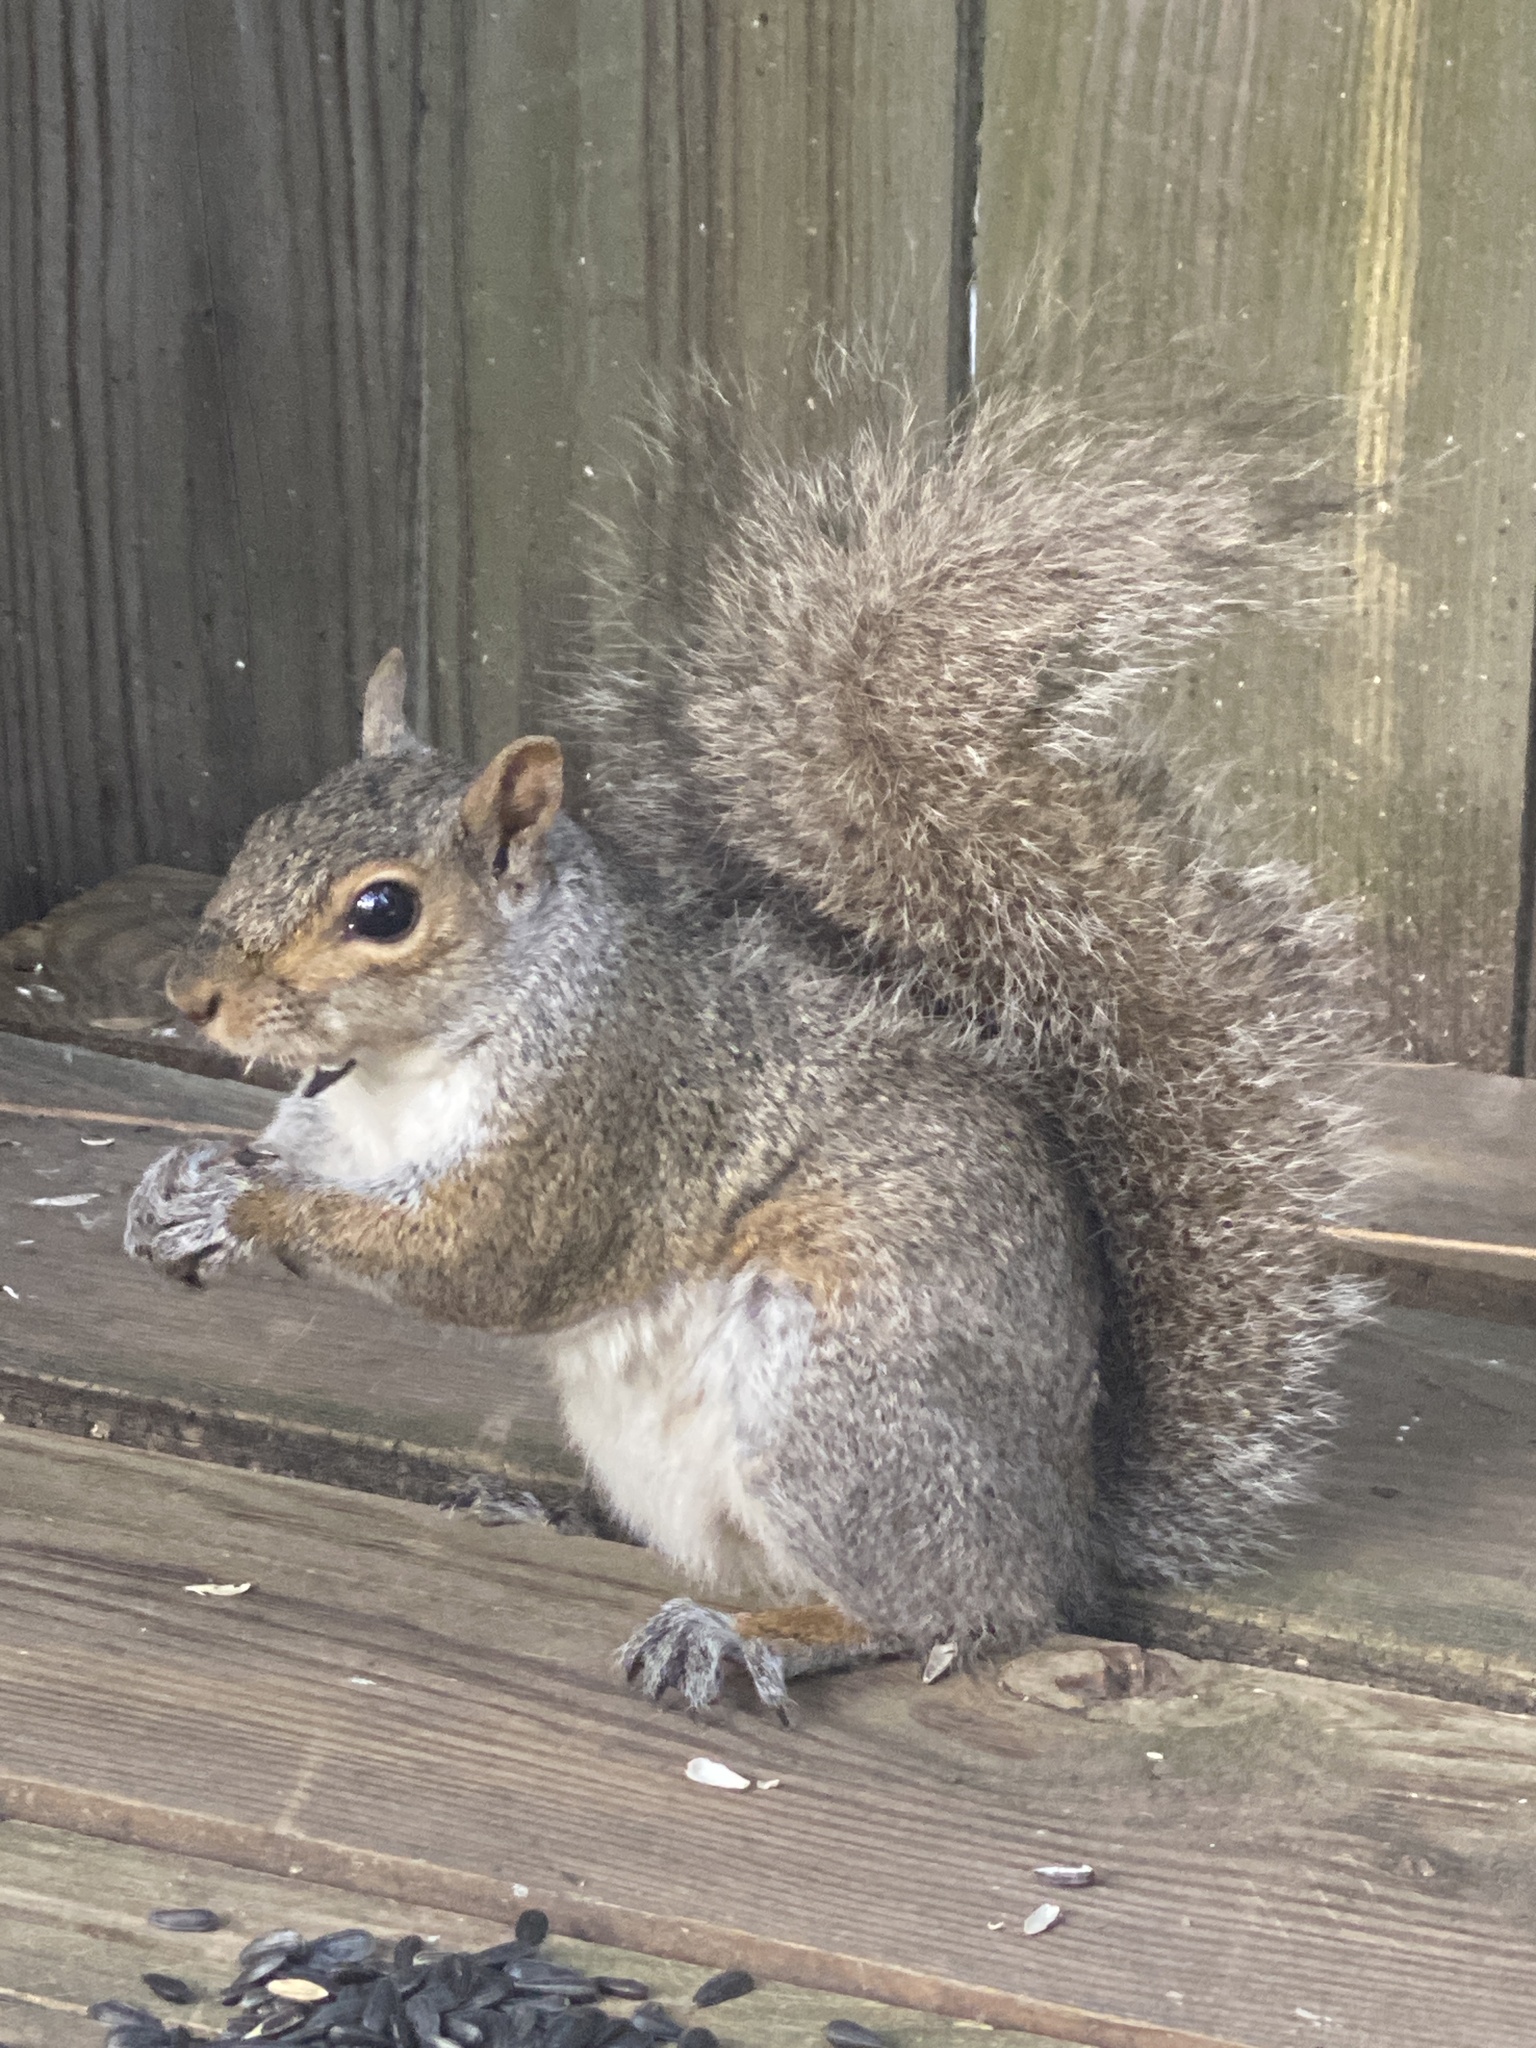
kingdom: Animalia
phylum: Chordata
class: Mammalia
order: Rodentia
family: Sciuridae
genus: Sciurus
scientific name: Sciurus carolinensis
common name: Eastern gray squirrel
